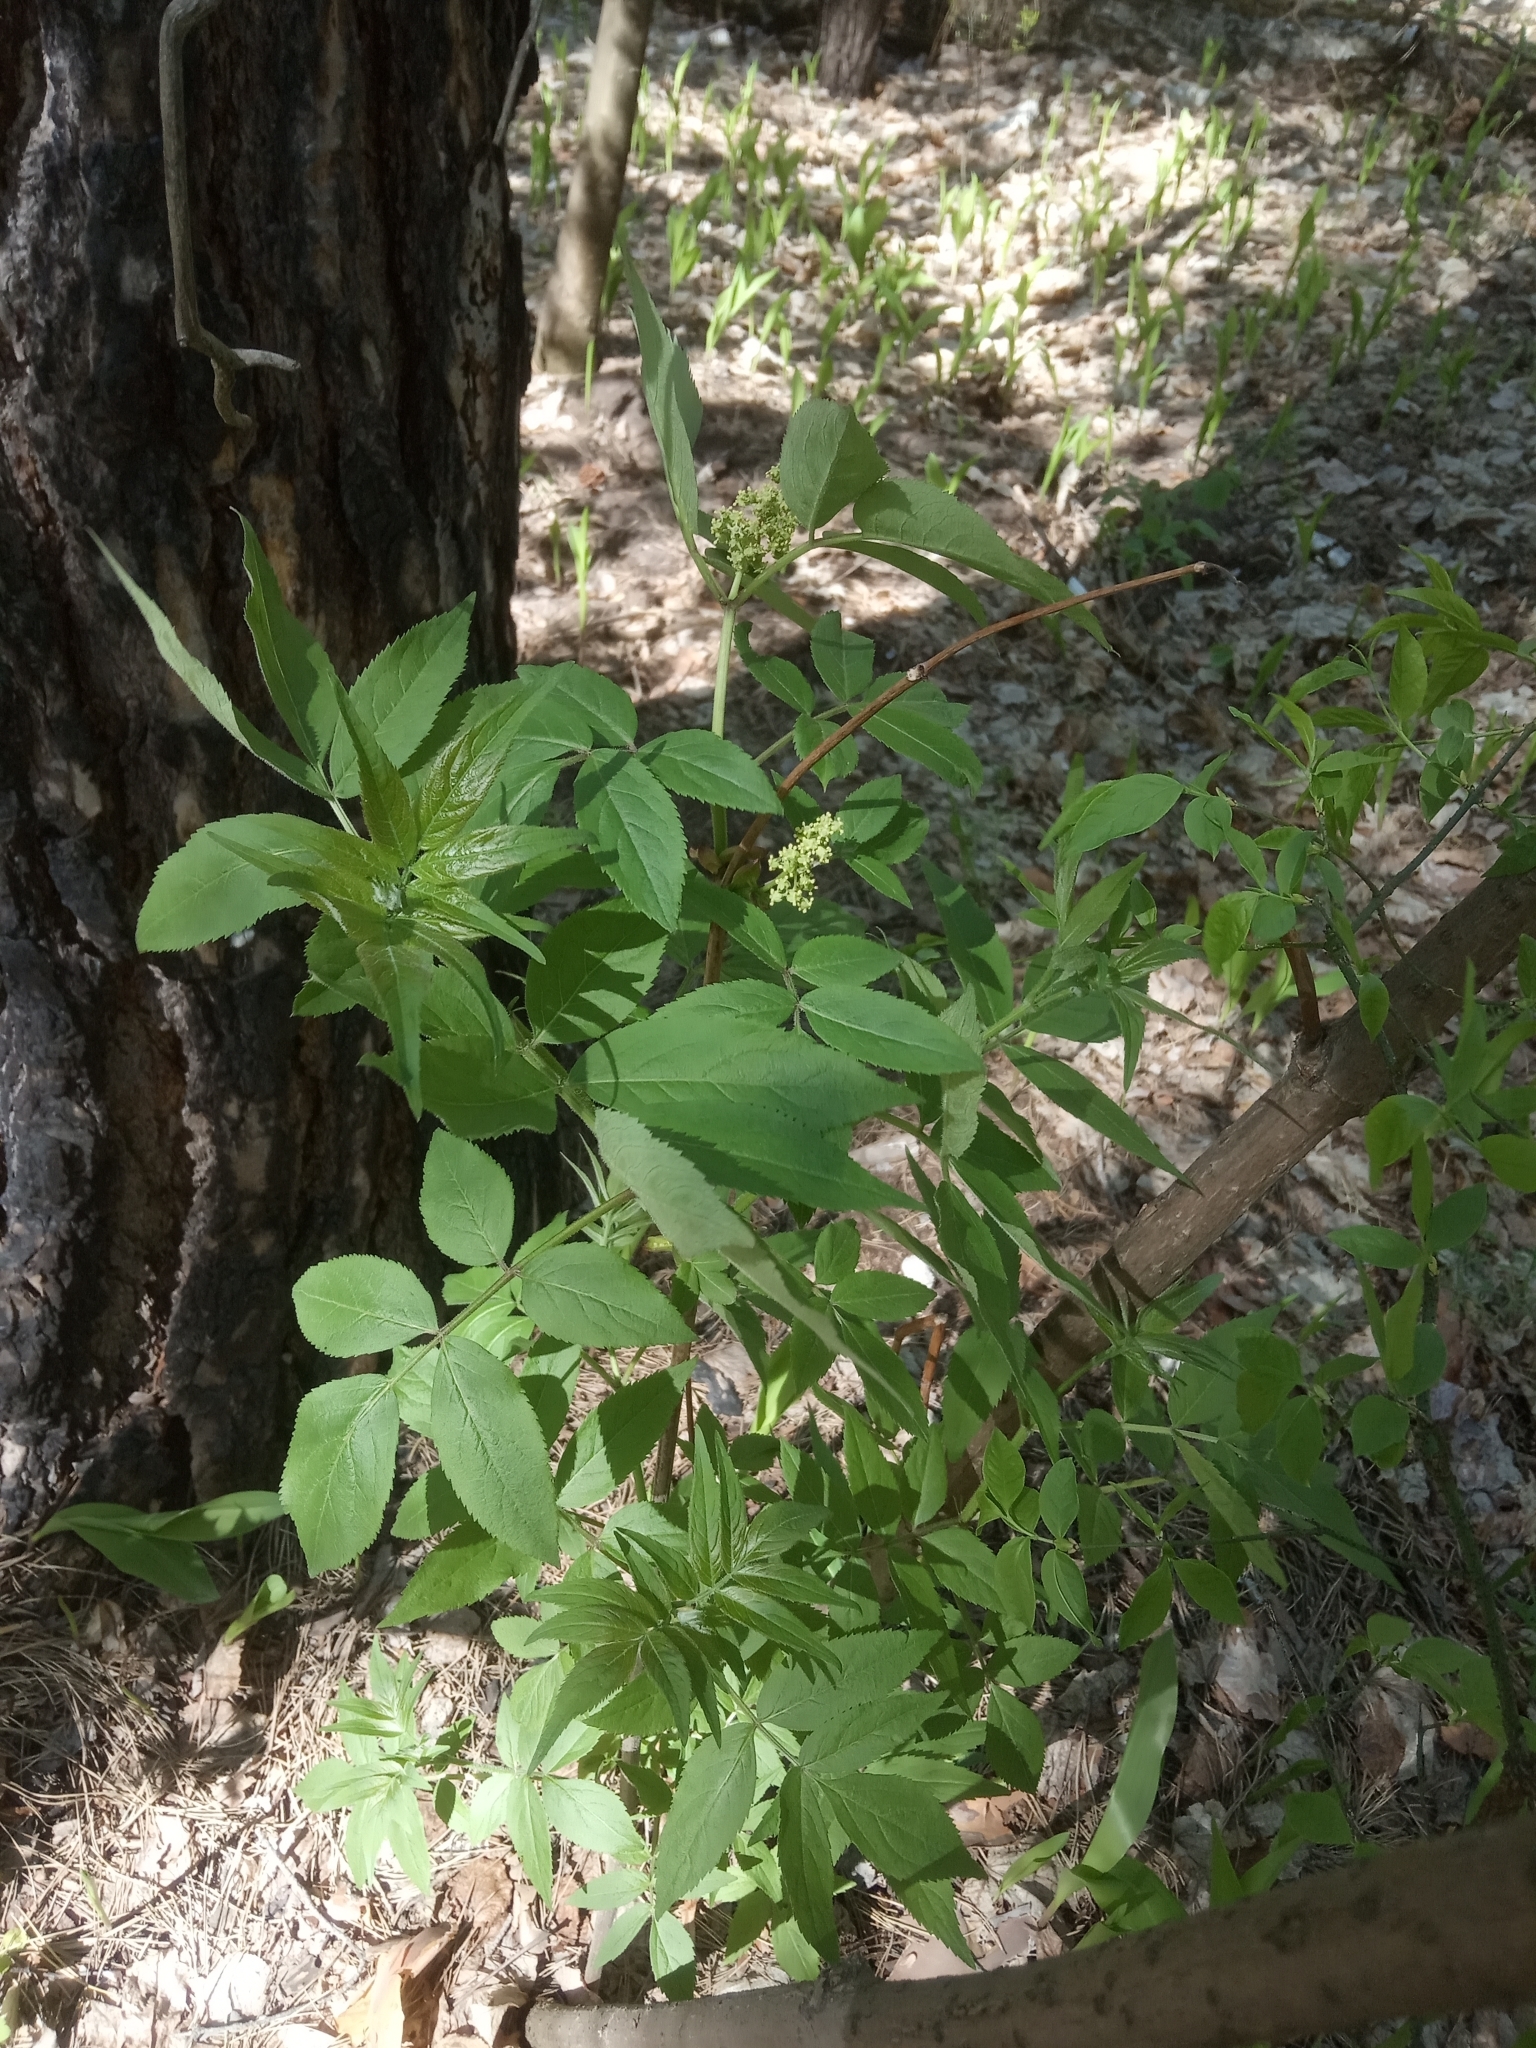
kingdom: Plantae
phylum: Tracheophyta
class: Magnoliopsida
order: Dipsacales
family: Viburnaceae
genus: Sambucus
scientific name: Sambucus racemosa
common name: Red-berried elder
